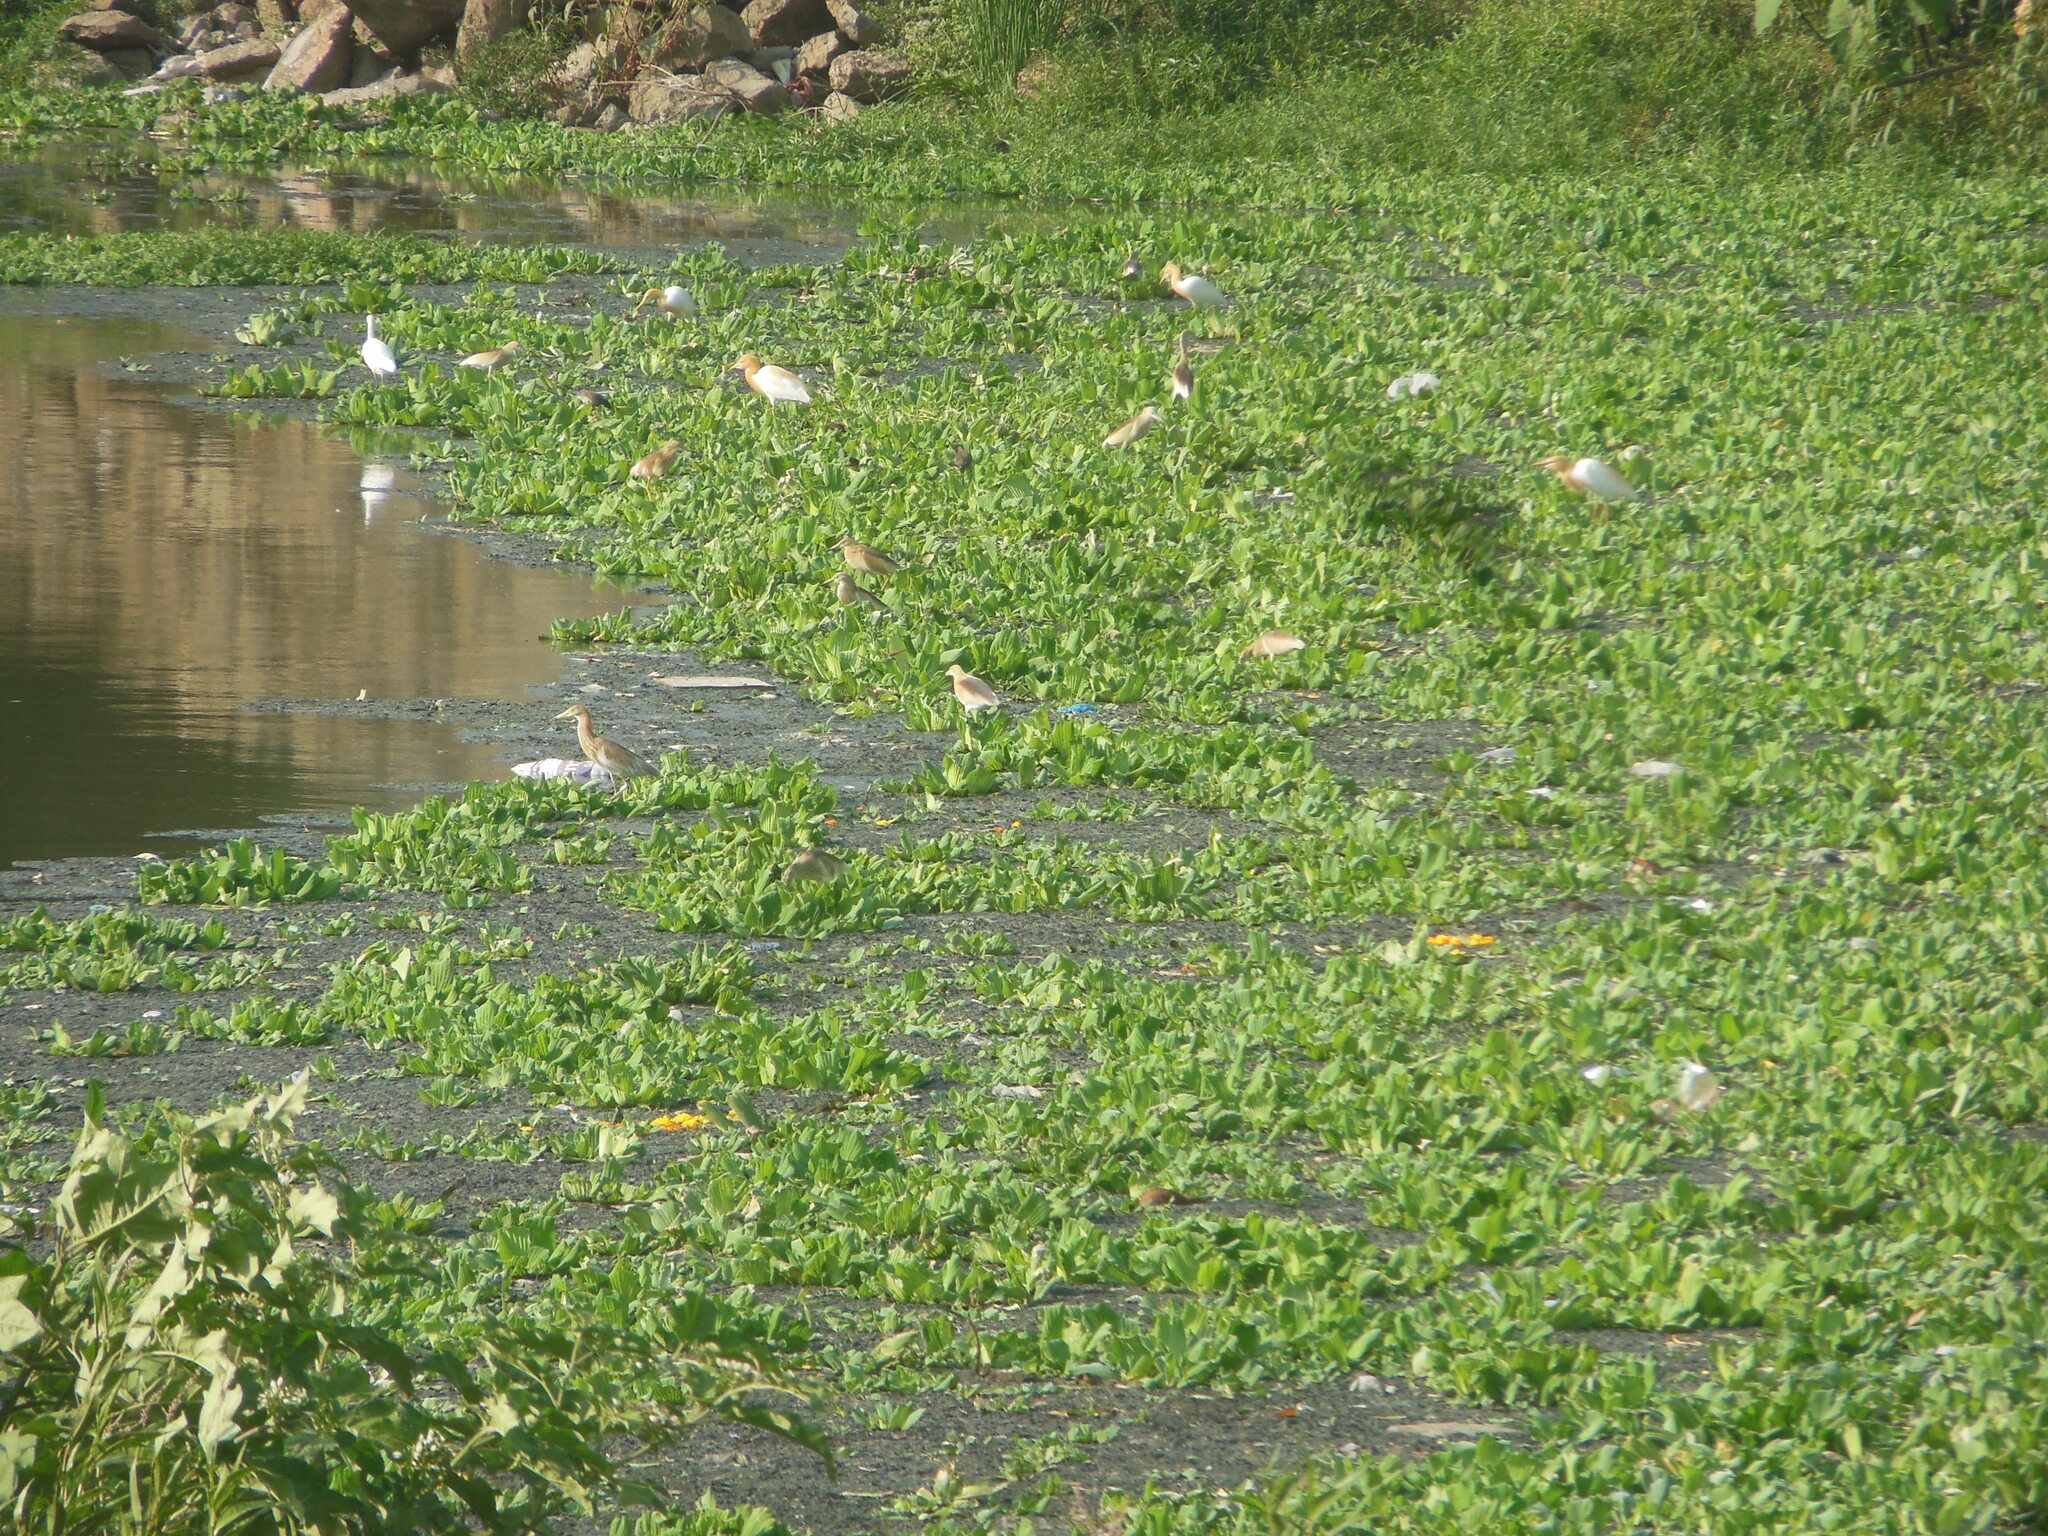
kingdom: Animalia
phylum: Chordata
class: Aves
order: Pelecaniformes
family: Ardeidae
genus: Bubulcus
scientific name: Bubulcus coromandus
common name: Eastern cattle egret
